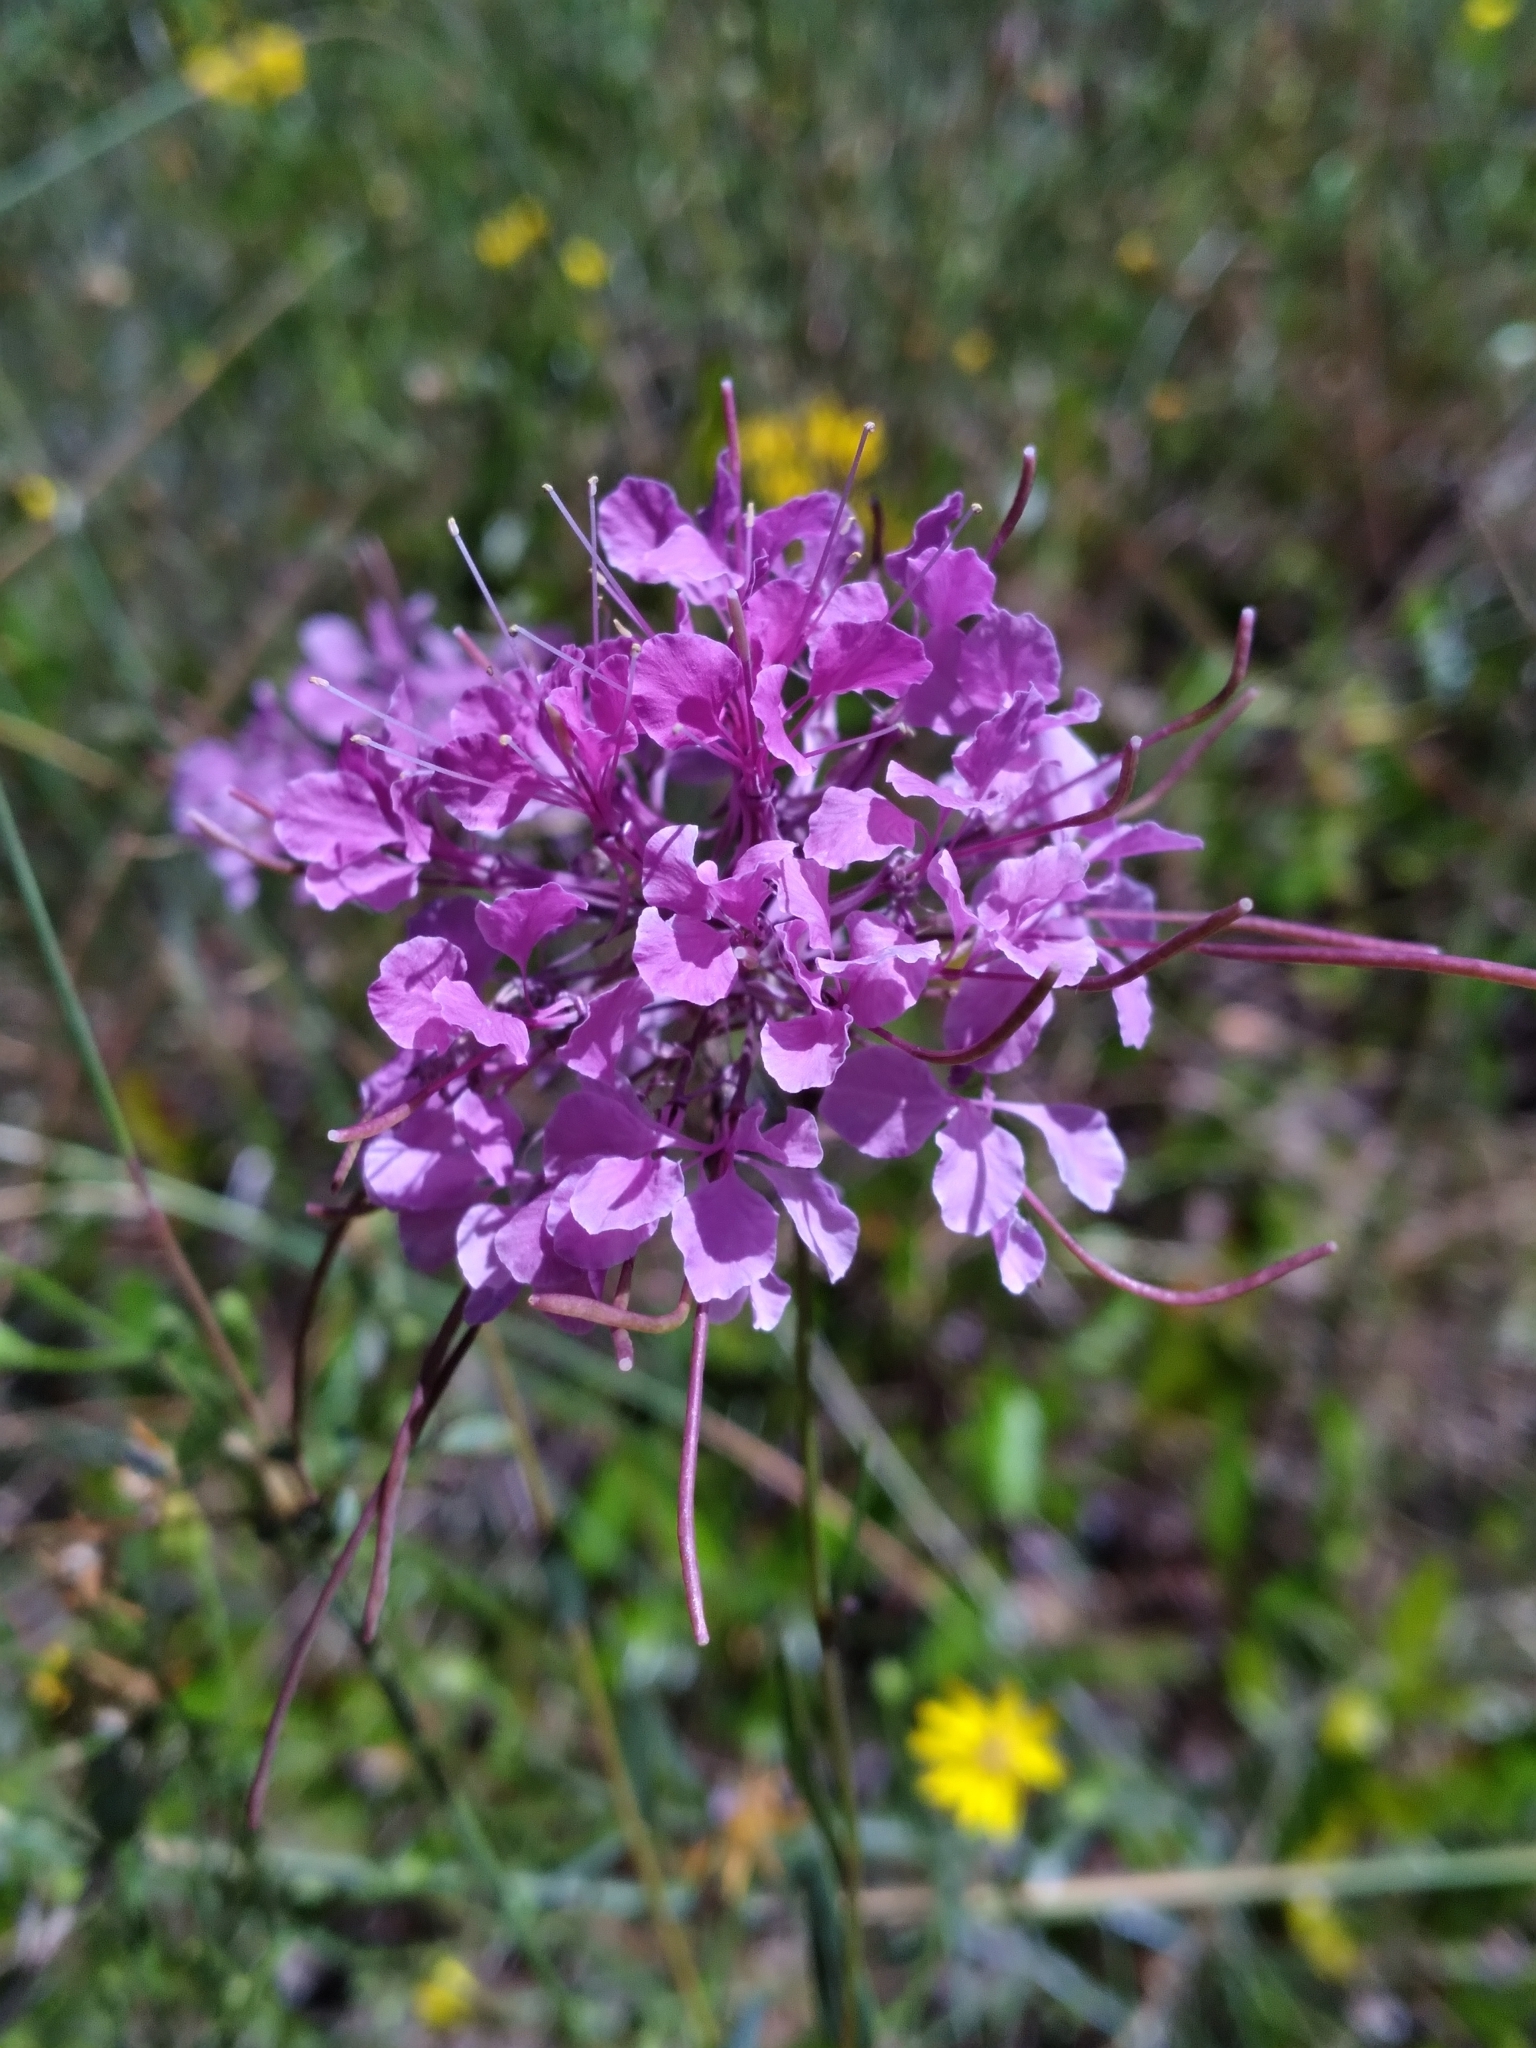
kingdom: Plantae
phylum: Tracheophyta
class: Magnoliopsida
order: Brassicales
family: Brassicaceae
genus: Warea
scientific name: Warea sessilifolia
